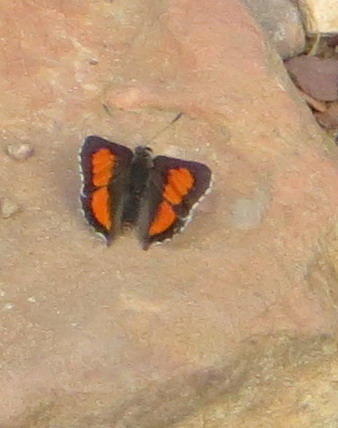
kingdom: Animalia
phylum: Arthropoda
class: Insecta
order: Lepidoptera
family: Lycaenidae
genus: Capys
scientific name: Capys alpheus
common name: Orange-banded protea butterfly
